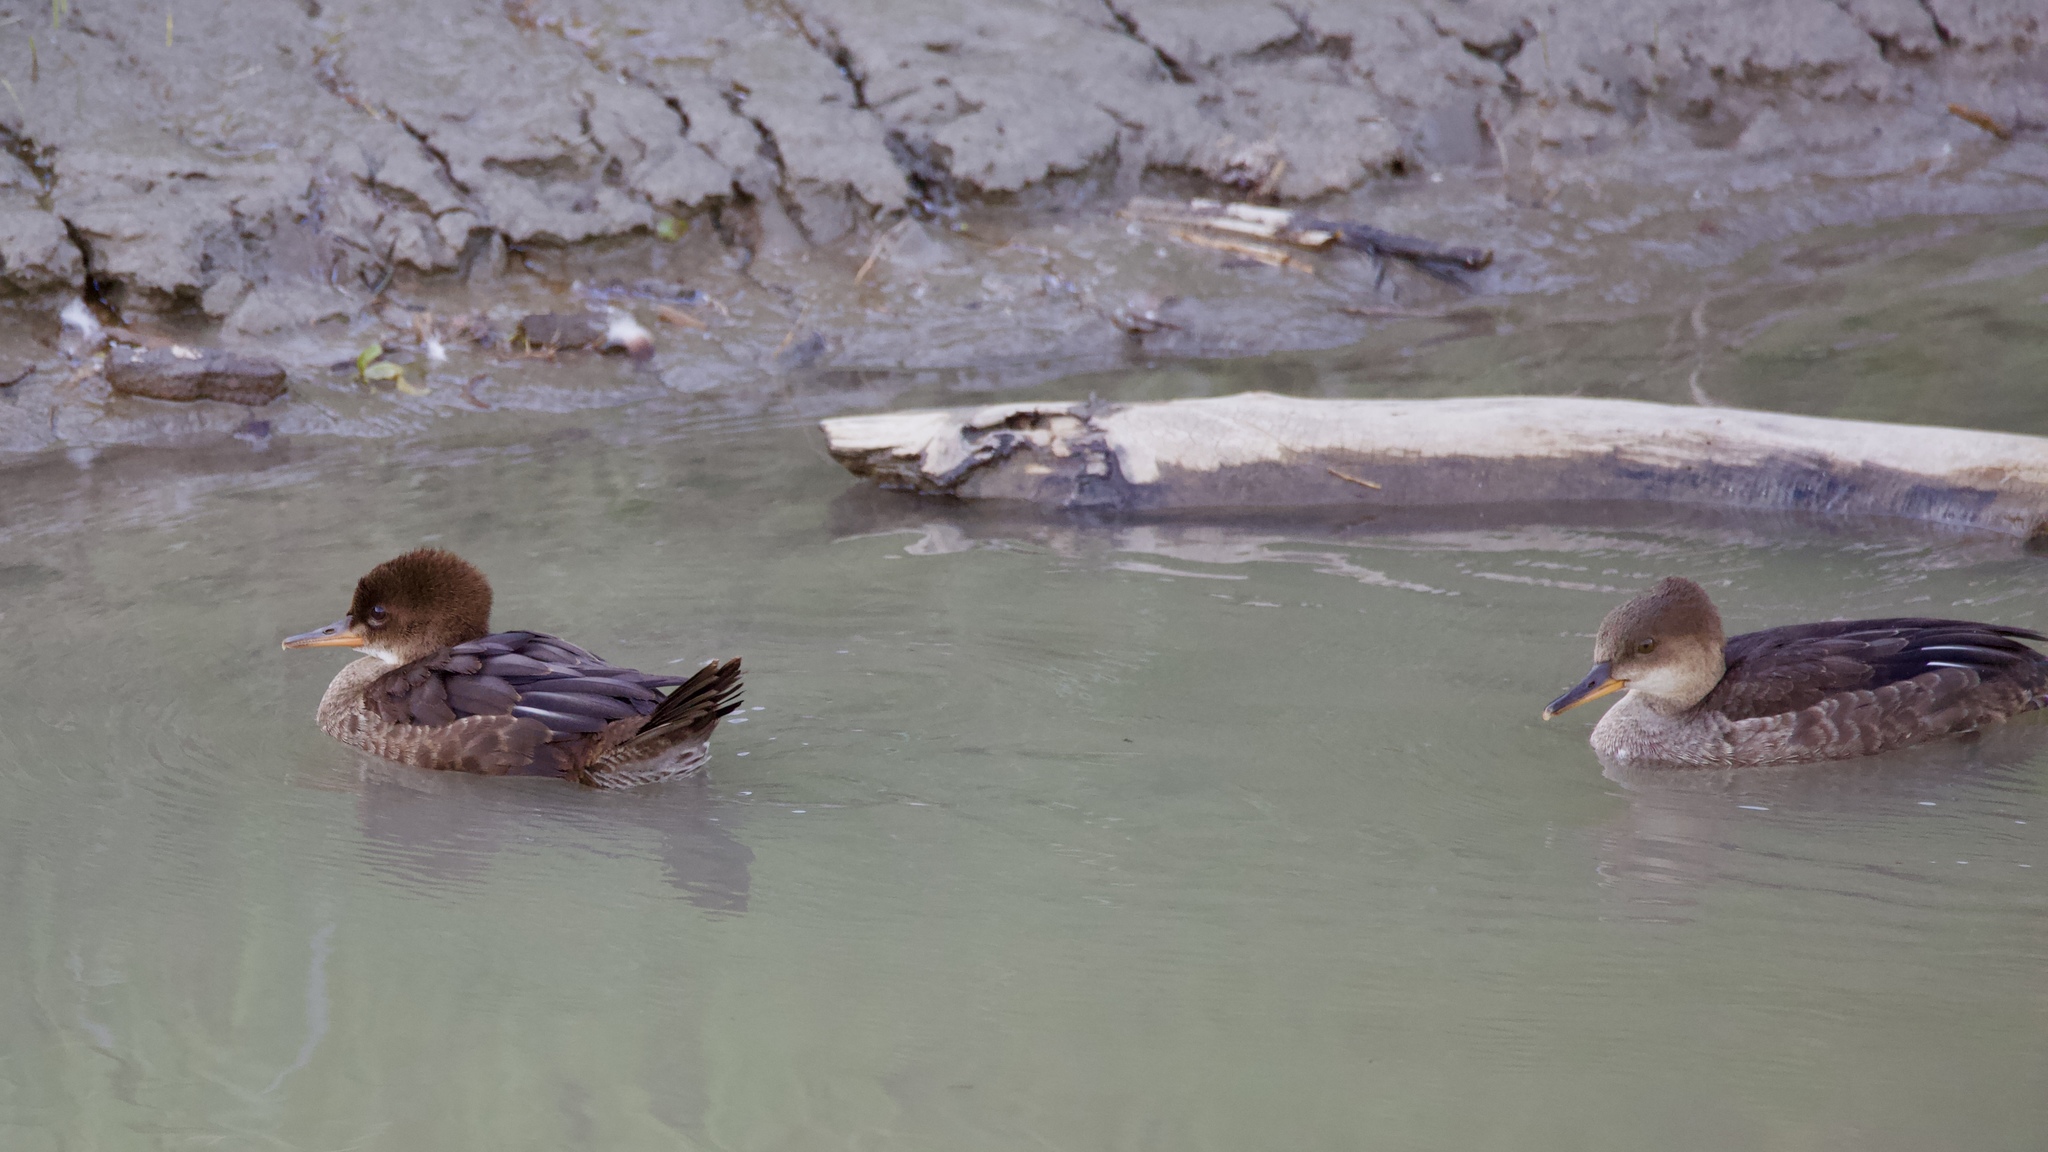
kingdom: Animalia
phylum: Chordata
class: Aves
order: Anseriformes
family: Anatidae
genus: Lophodytes
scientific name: Lophodytes cucullatus
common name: Hooded merganser
